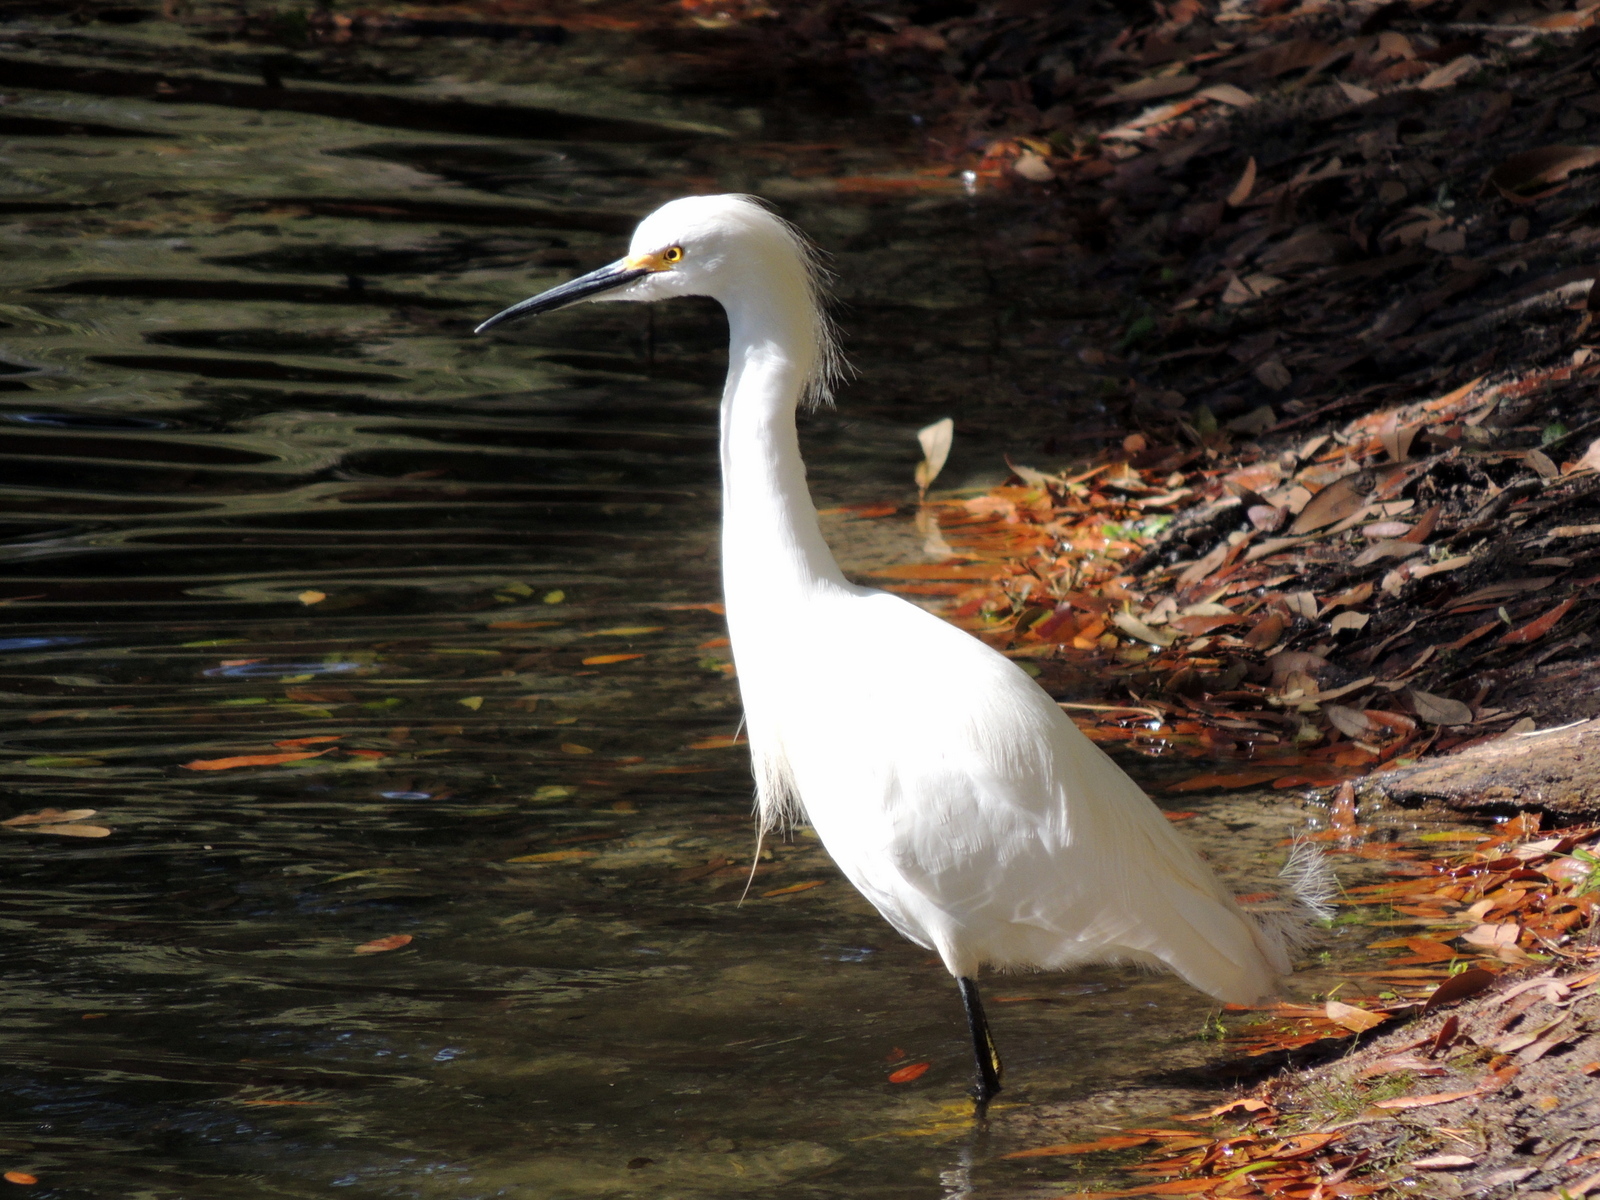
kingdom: Animalia
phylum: Chordata
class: Aves
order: Pelecaniformes
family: Ardeidae
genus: Egretta
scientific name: Egretta thula
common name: Snowy egret
